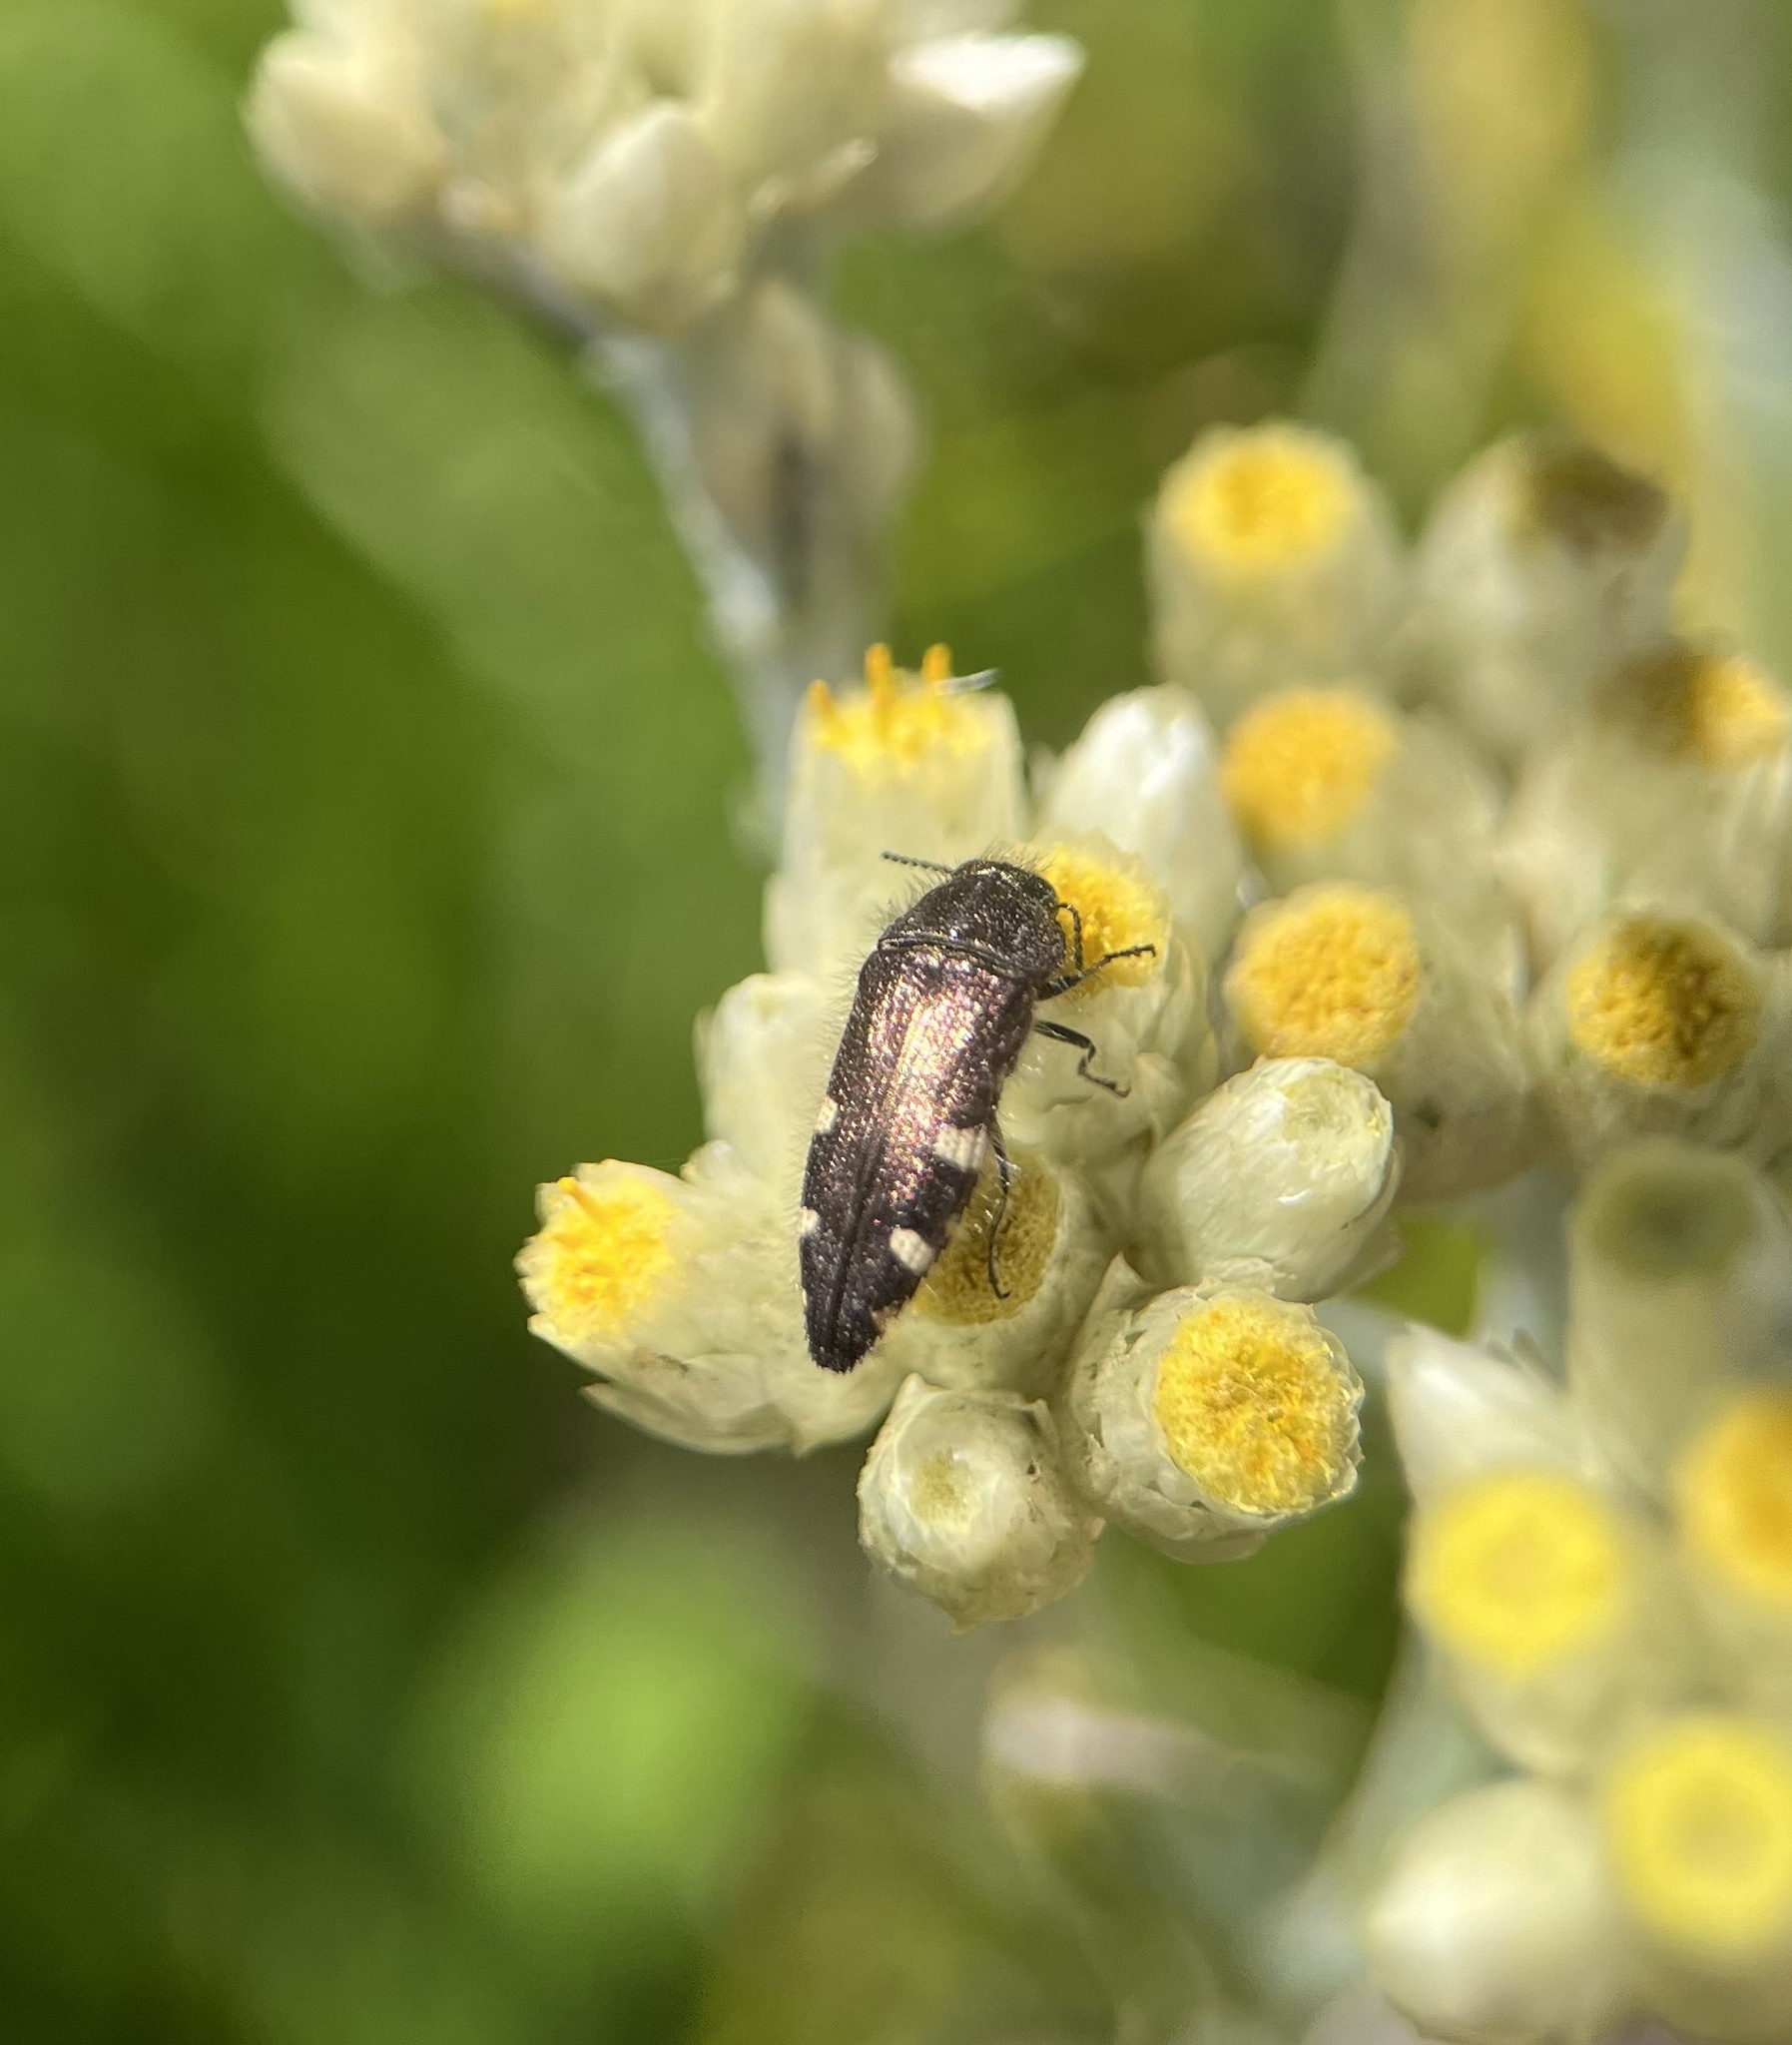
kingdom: Animalia
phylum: Arthropoda
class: Insecta
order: Coleoptera
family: Buprestidae
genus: Acmaeodera
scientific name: Acmaeodera prorsa
